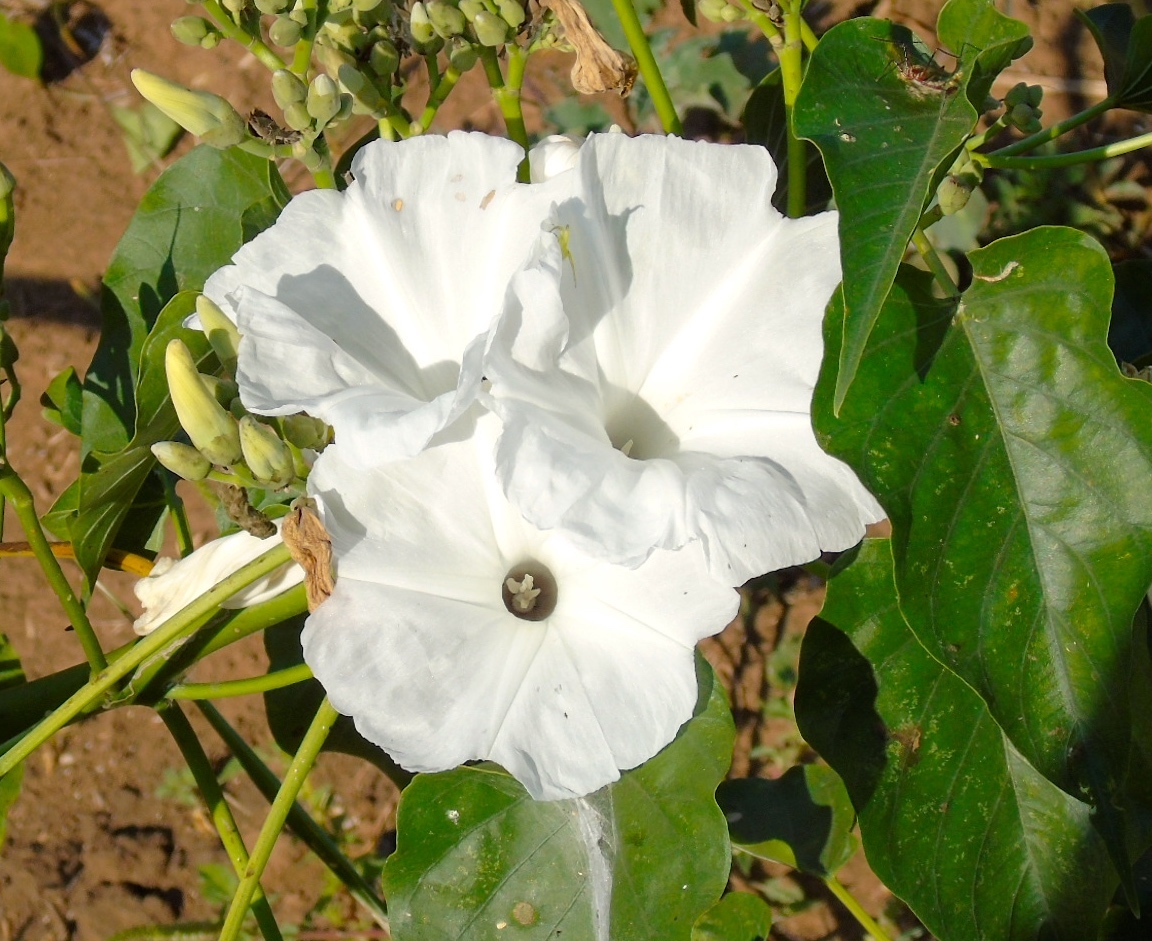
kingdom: Plantae
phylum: Tracheophyta
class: Magnoliopsida
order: Solanales
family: Convolvulaceae
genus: Ipomoea
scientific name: Ipomoea carnea
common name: Morning-glory
